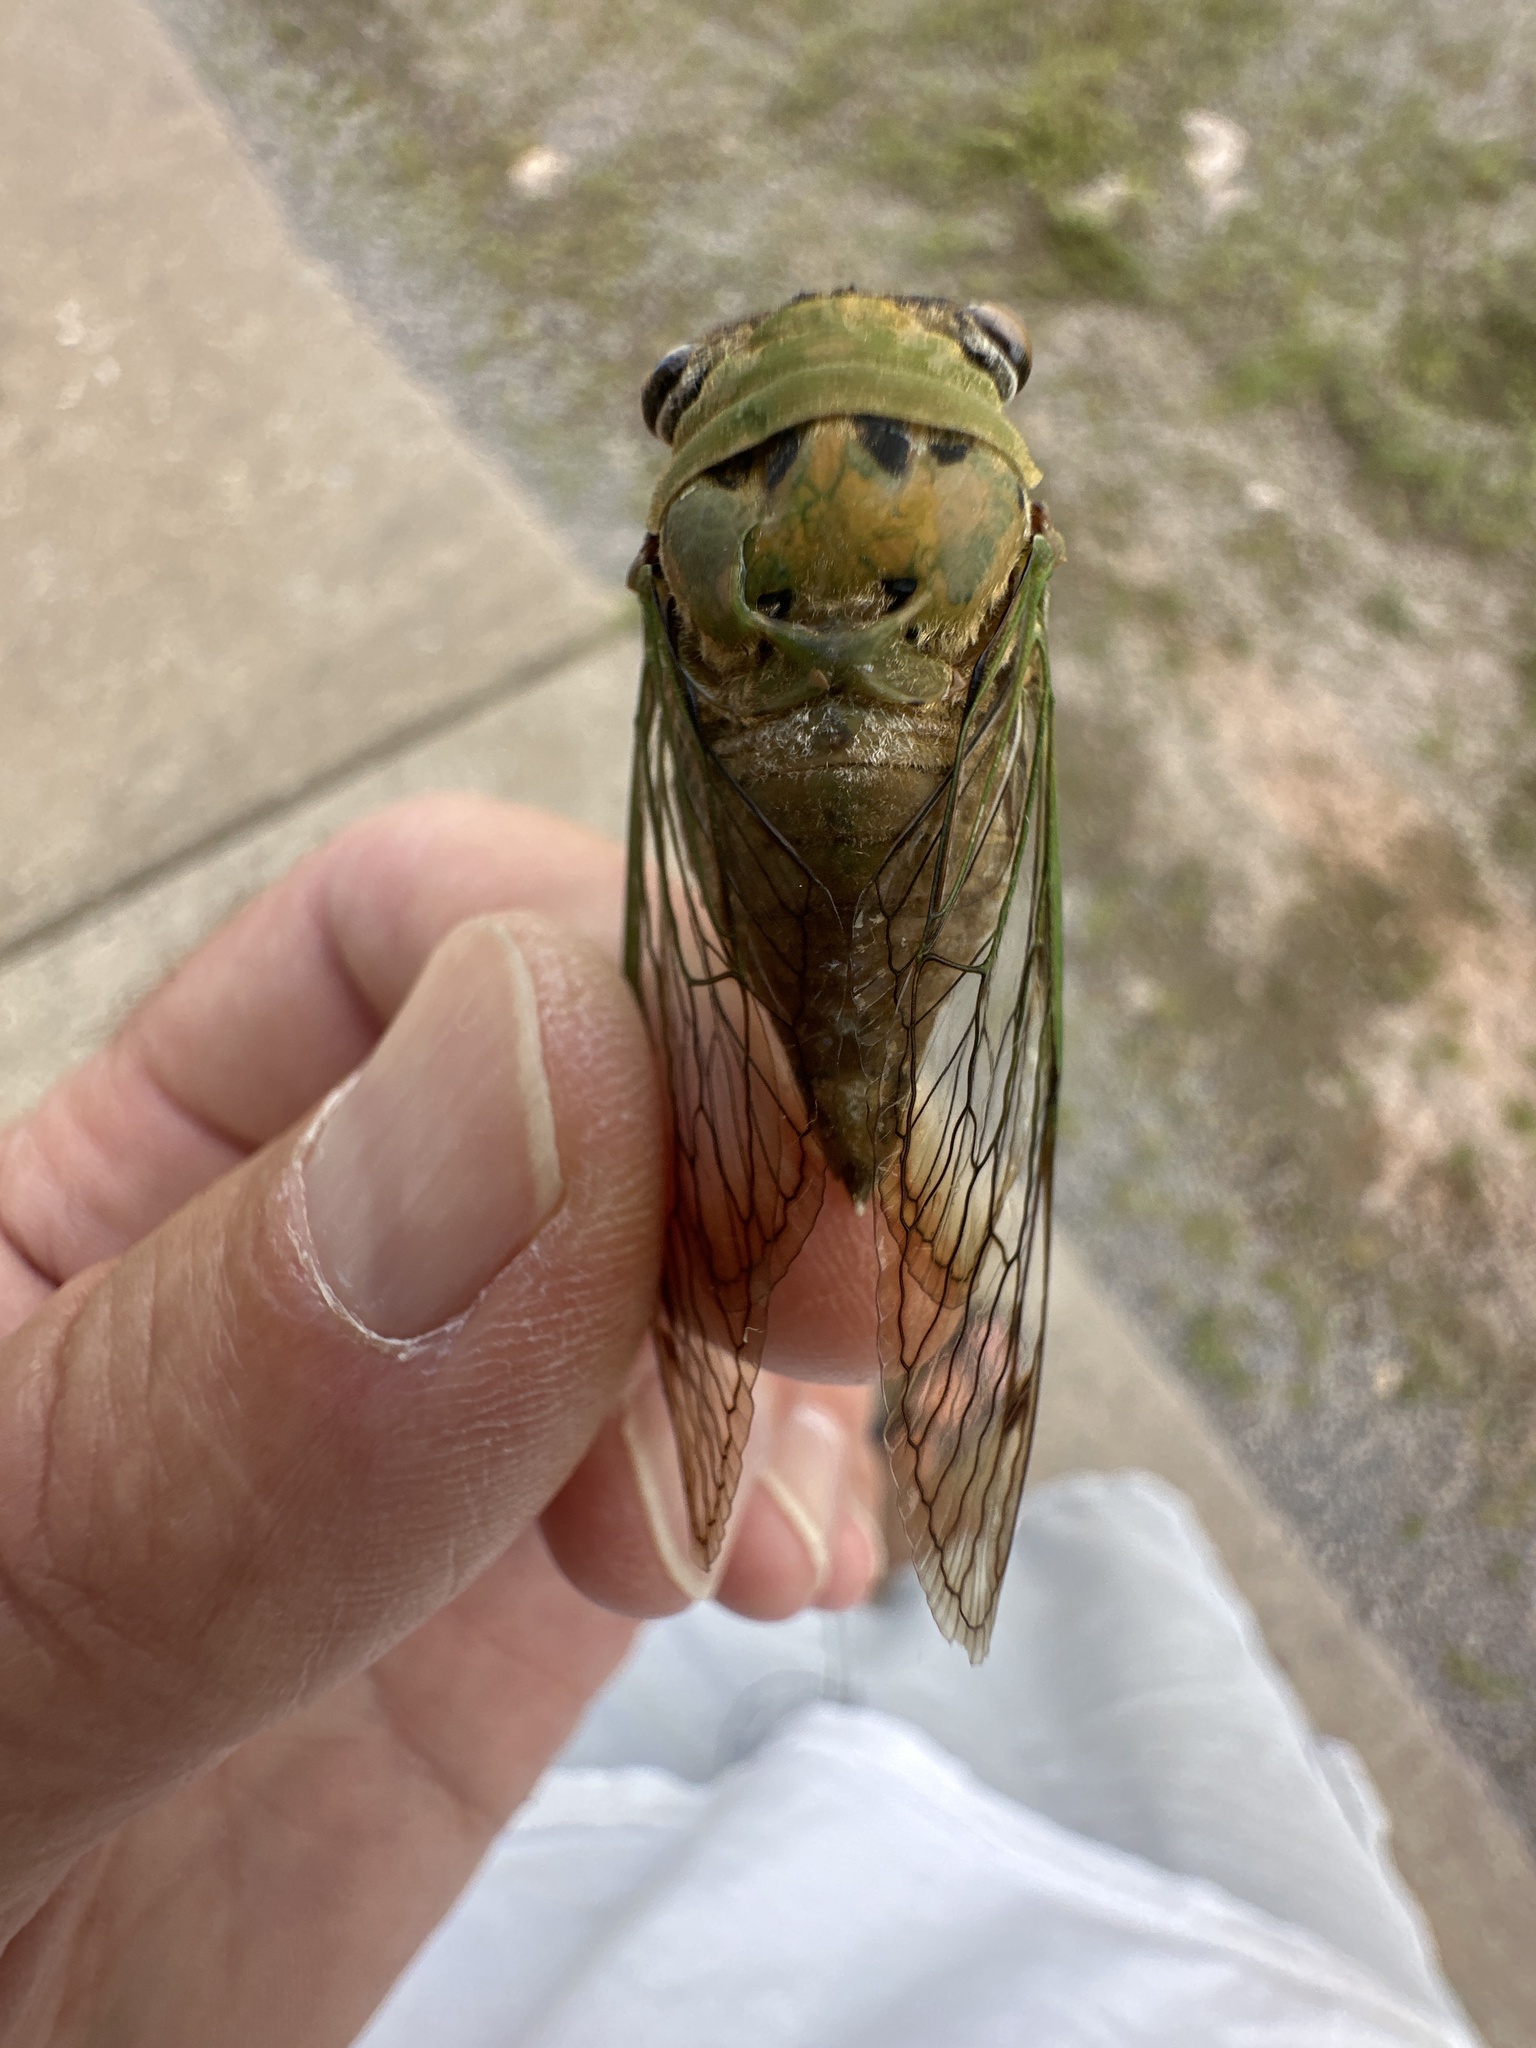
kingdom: Animalia
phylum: Arthropoda
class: Insecta
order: Hemiptera
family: Cicadidae
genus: Neotibicen
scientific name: Neotibicen superbus
